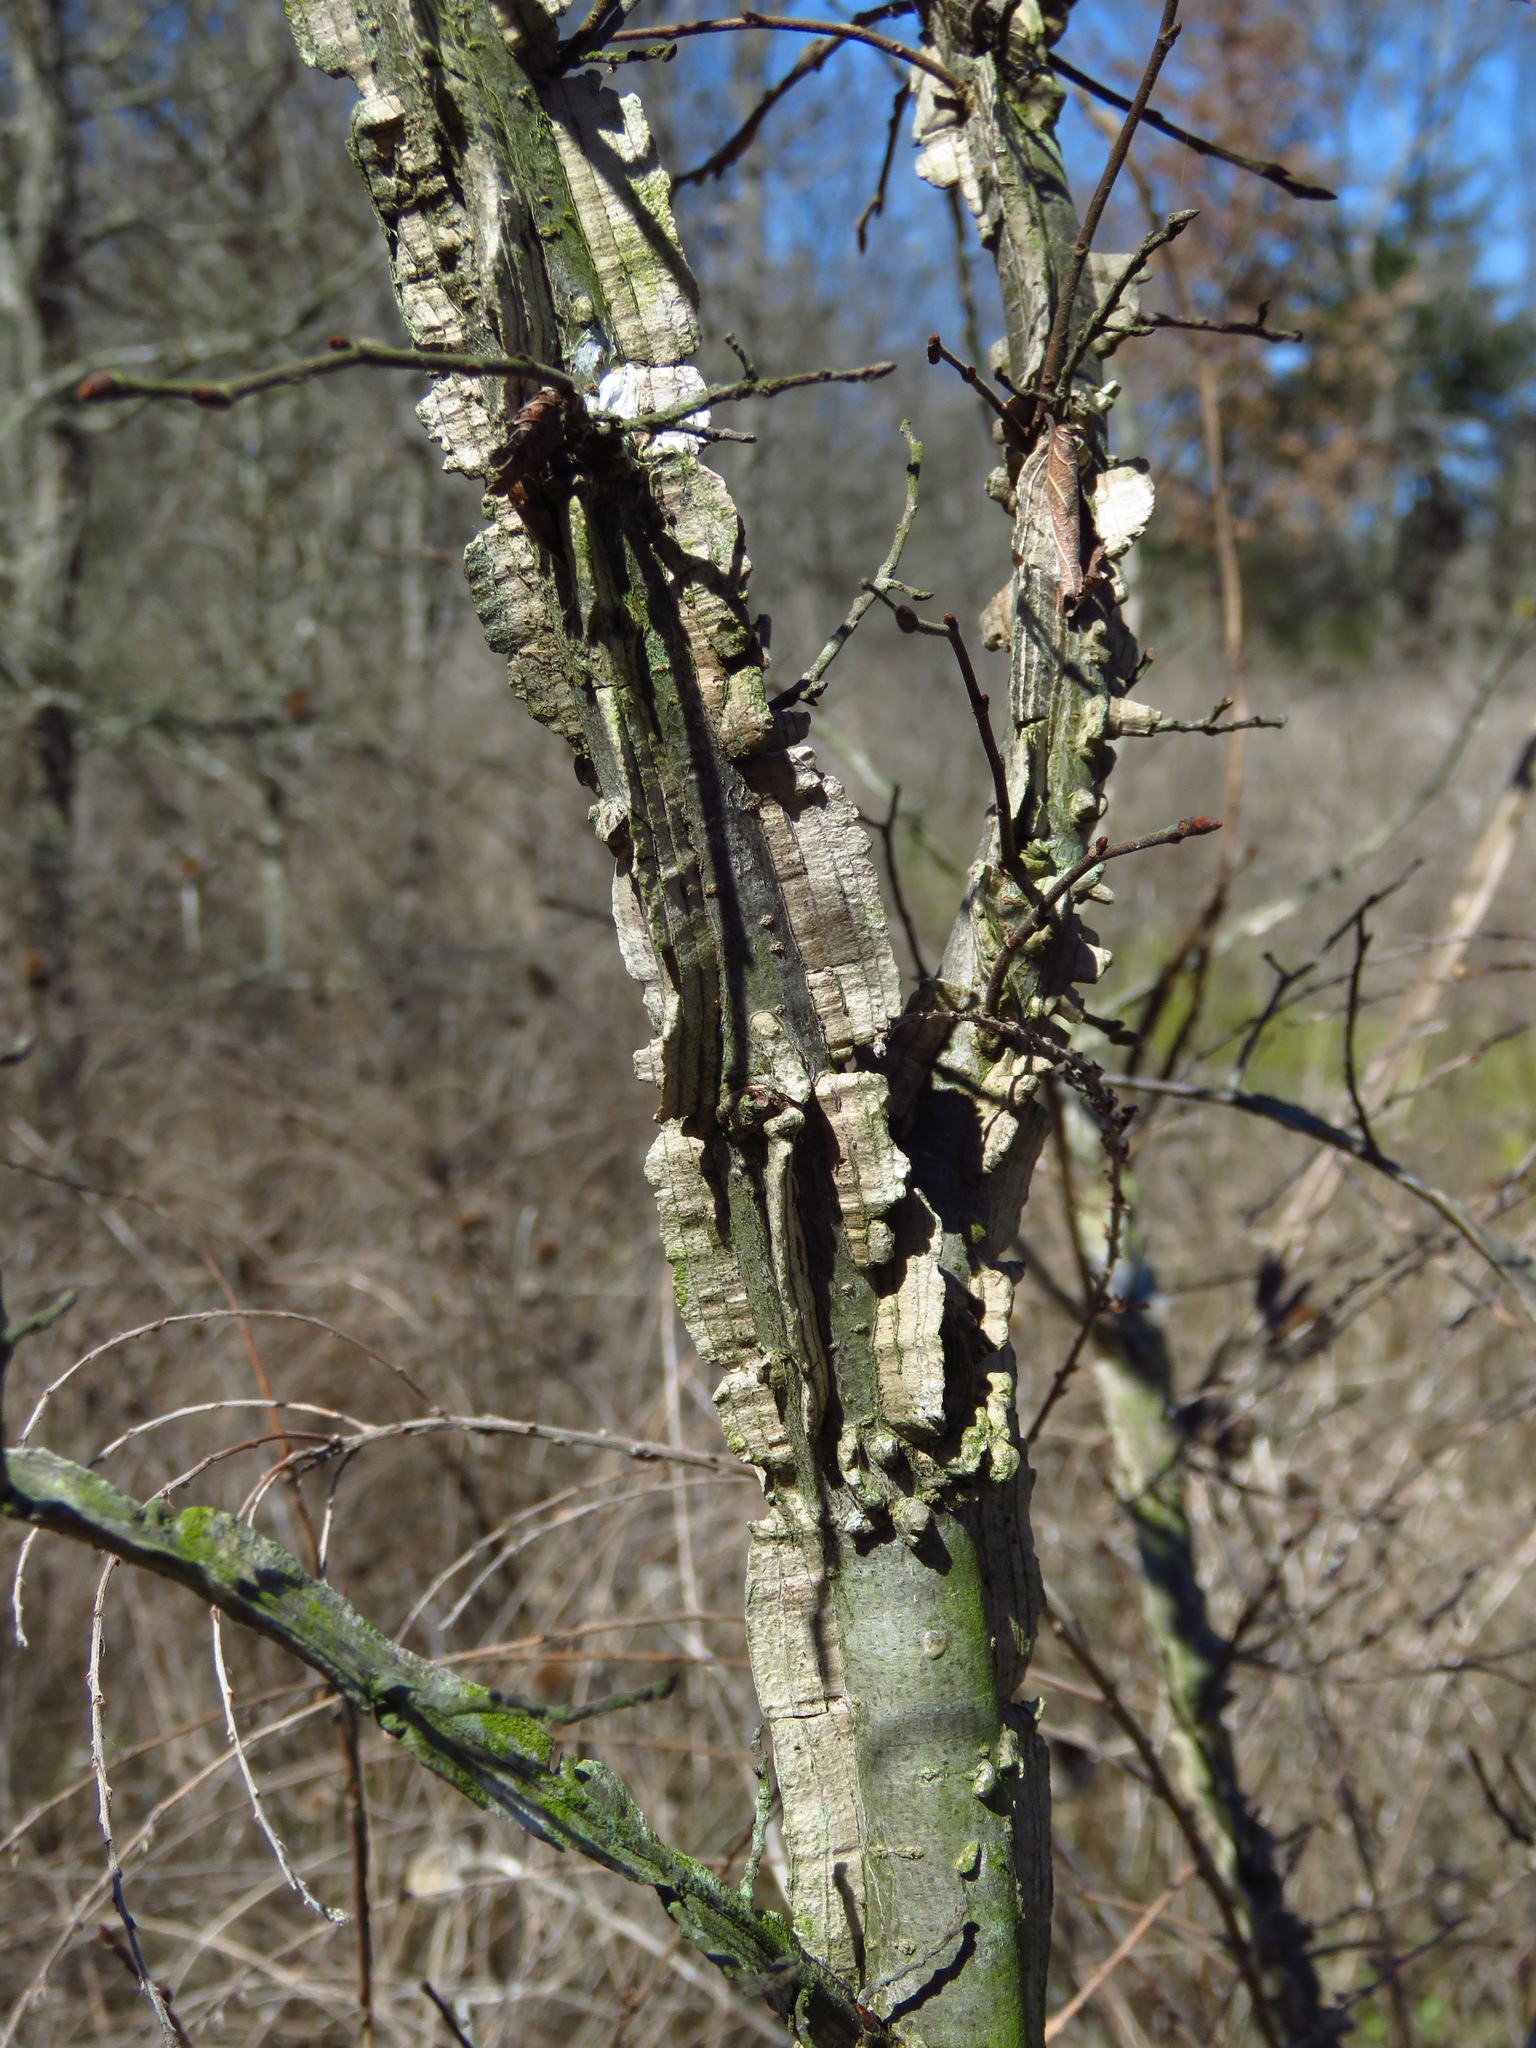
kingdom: Plantae
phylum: Tracheophyta
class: Magnoliopsida
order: Rosales
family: Ulmaceae
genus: Ulmus
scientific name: Ulmus alata
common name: Winged elm
